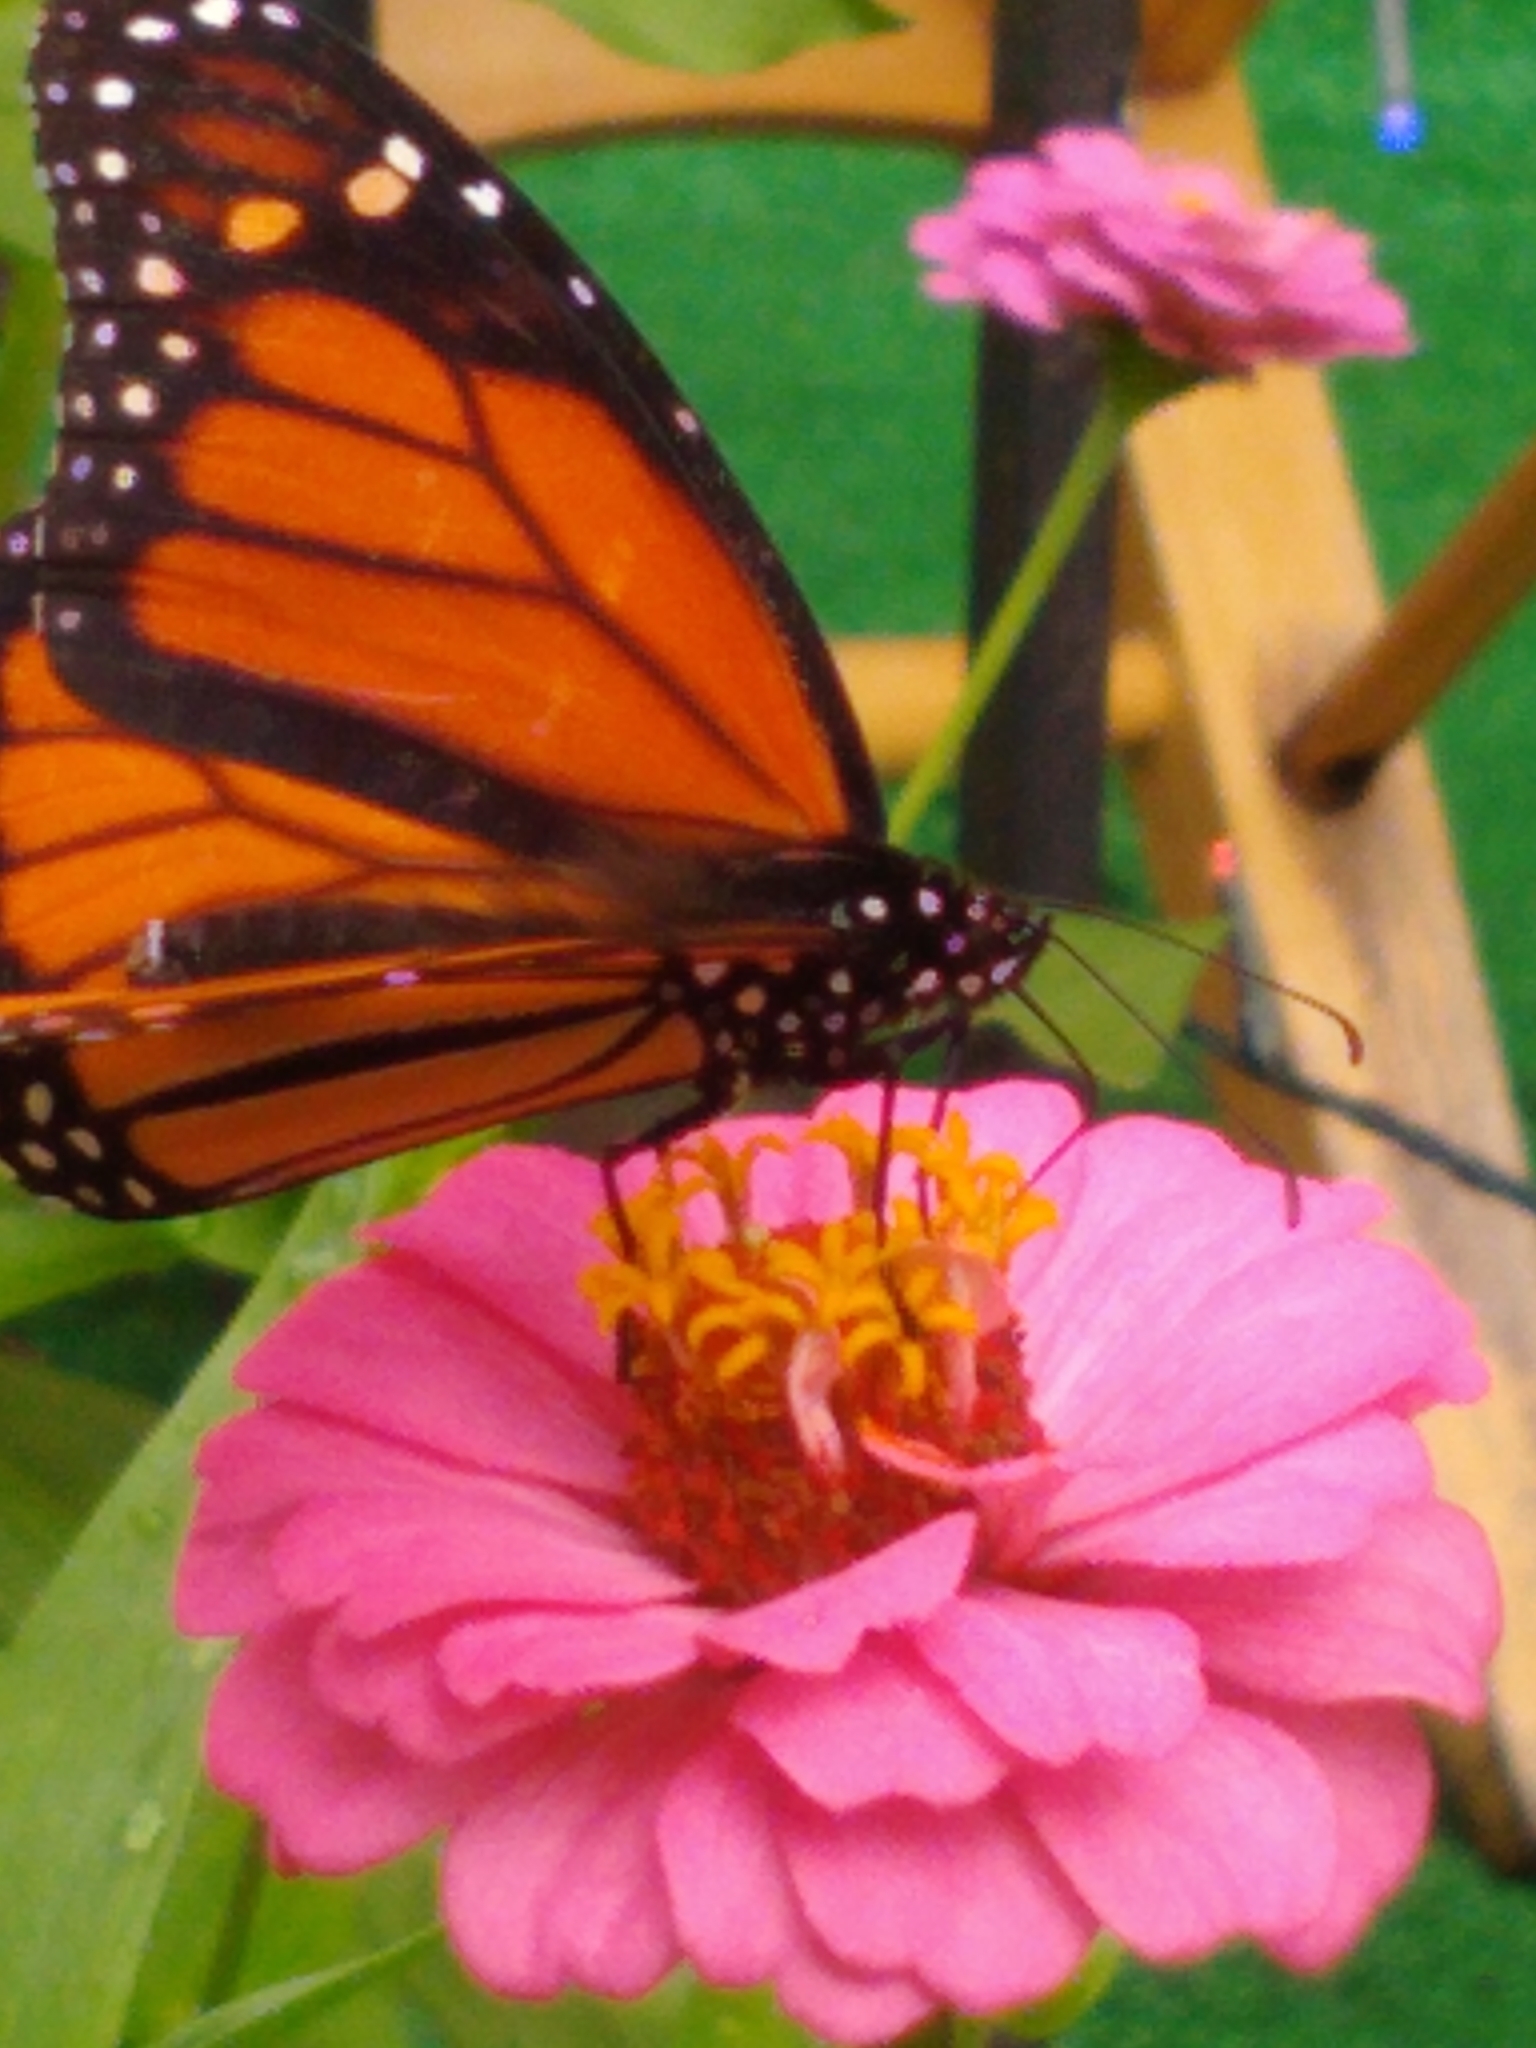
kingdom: Animalia
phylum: Arthropoda
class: Insecta
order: Lepidoptera
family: Nymphalidae
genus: Danaus
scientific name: Danaus plexippus
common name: Monarch
